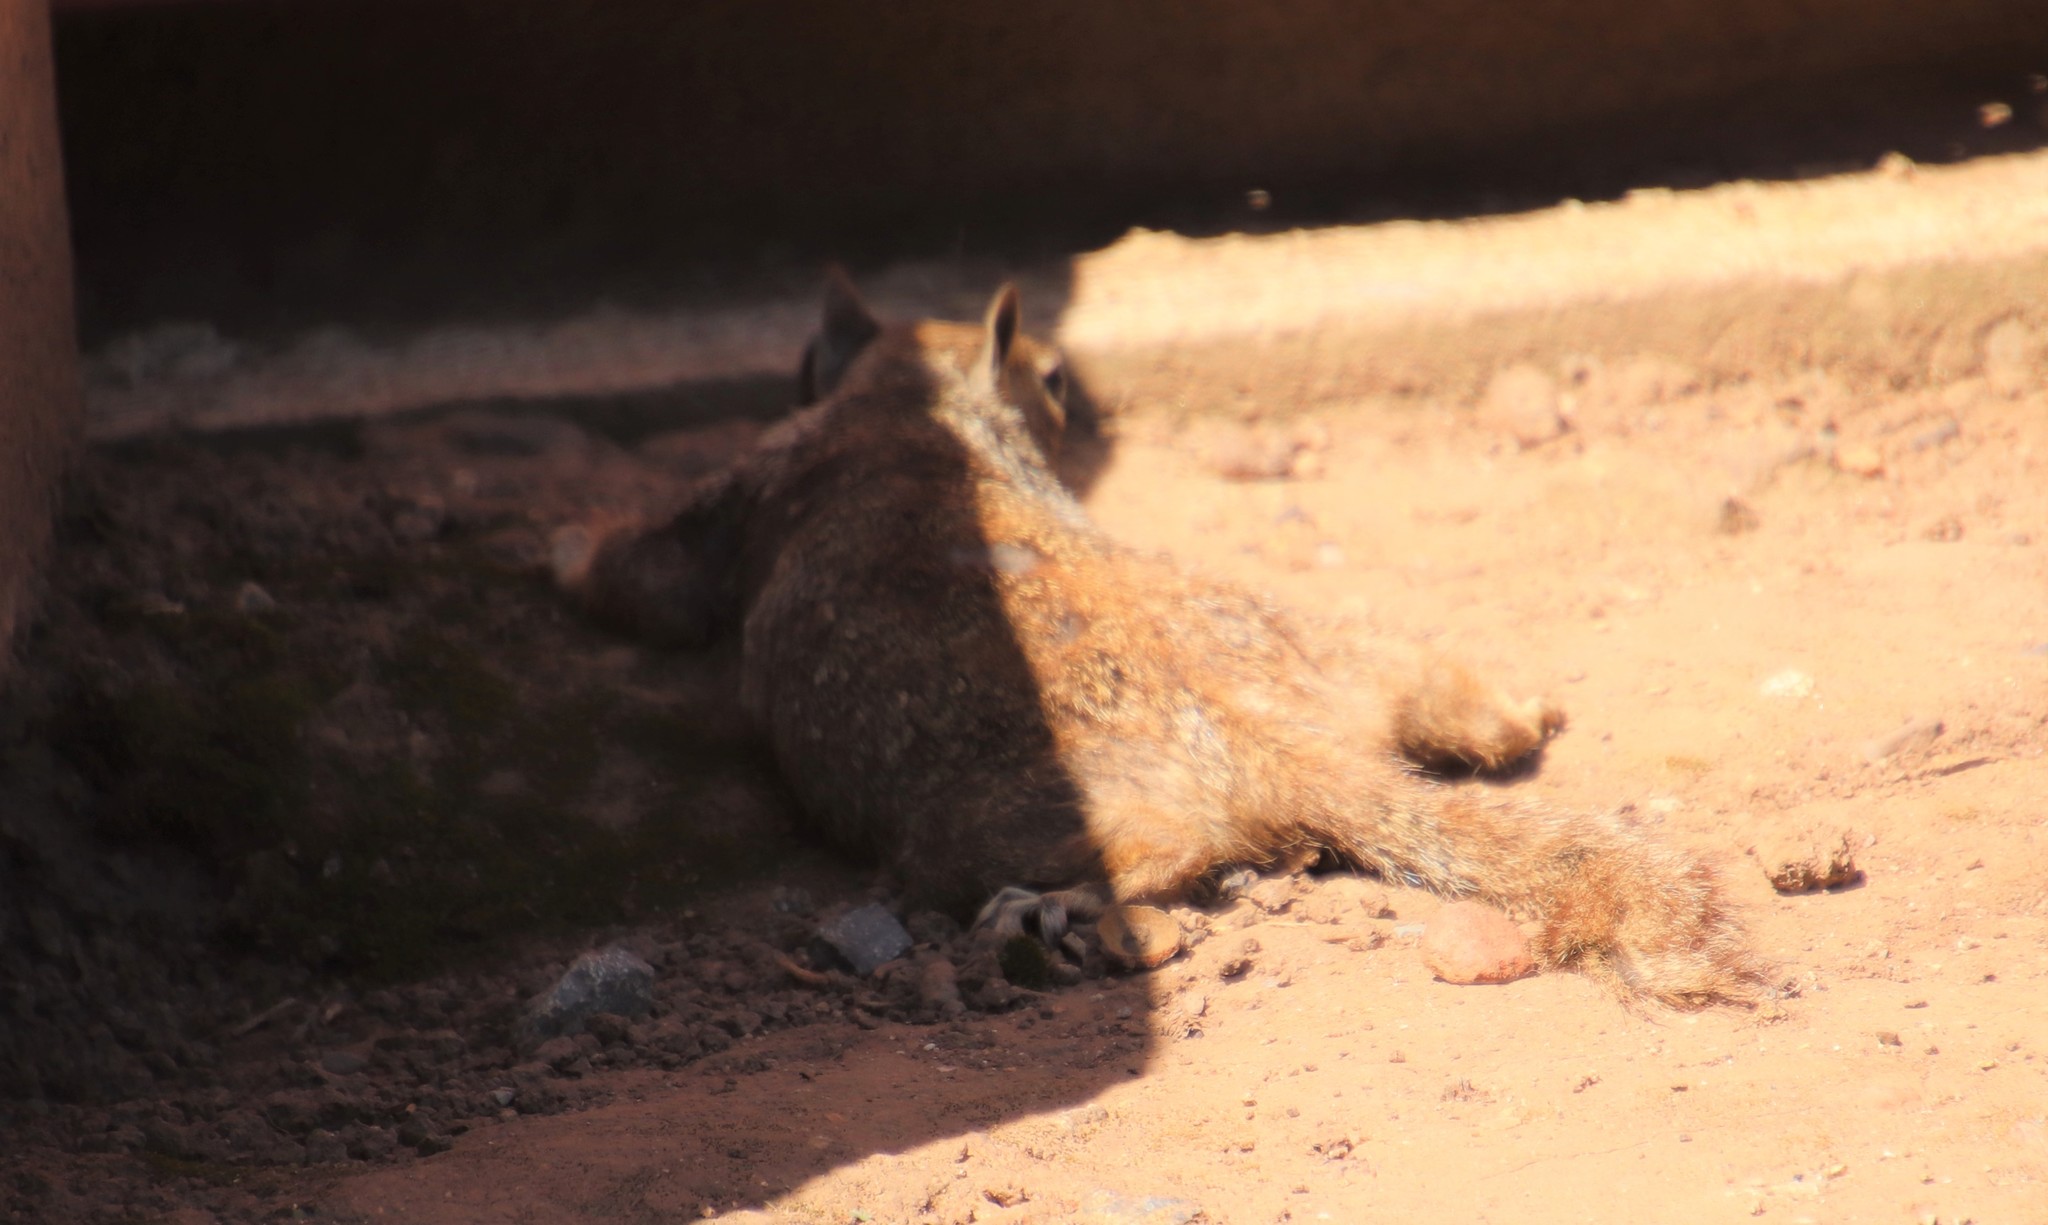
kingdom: Animalia
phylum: Chordata
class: Mammalia
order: Rodentia
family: Sciuridae
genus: Otospermophilus
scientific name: Otospermophilus beecheyi
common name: California ground squirrel
